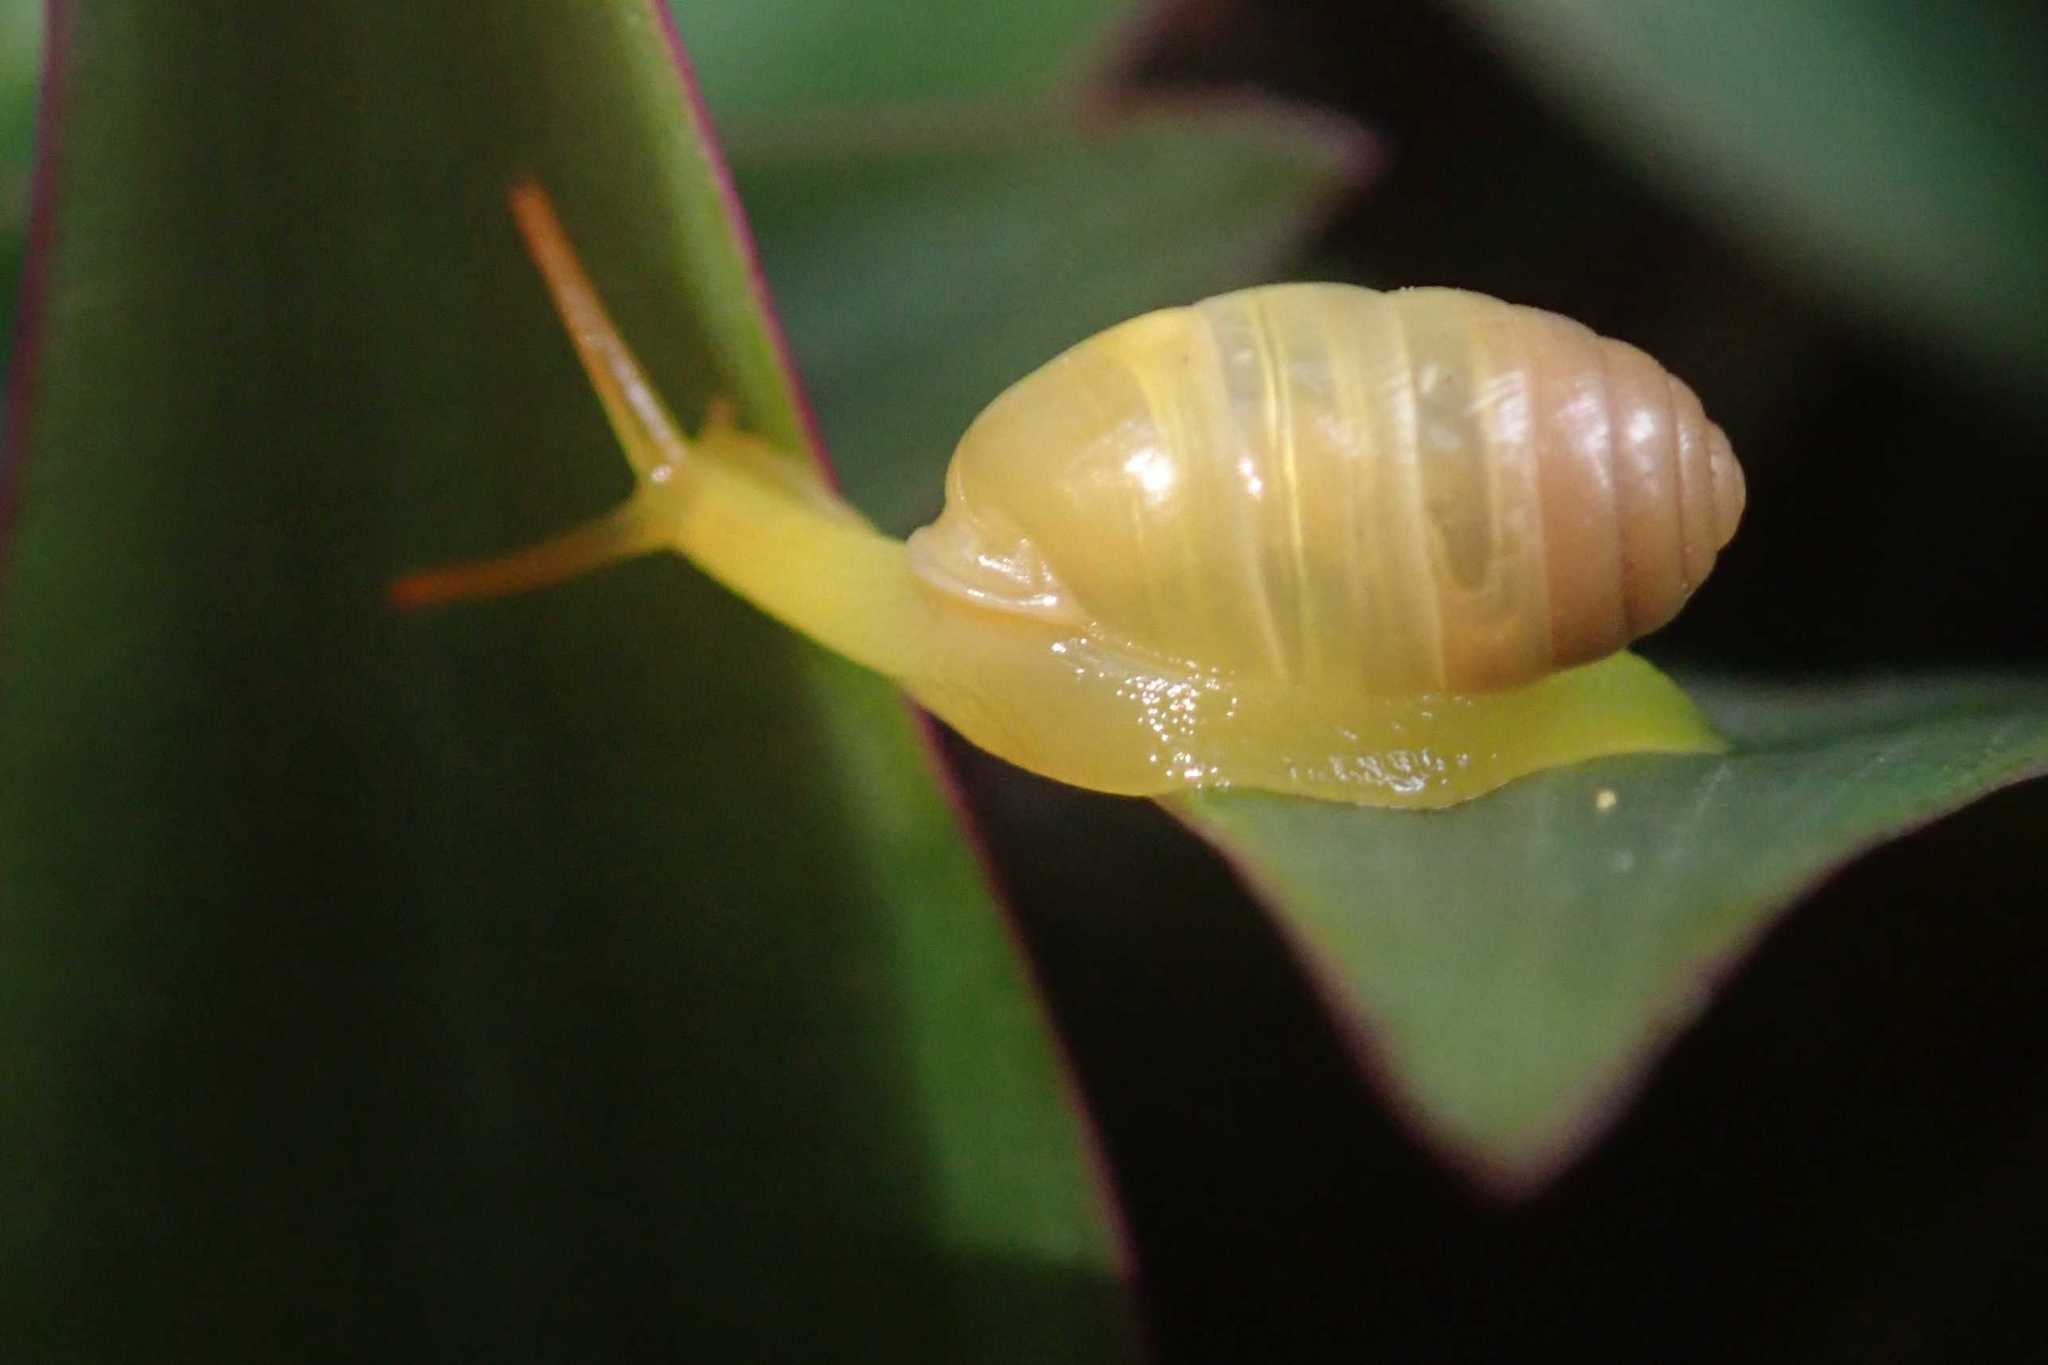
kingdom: Animalia
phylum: Mollusca
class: Gastropoda
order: Stylommatophora
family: Streptaxidae
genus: Gulella
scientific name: Gulella triglochis
